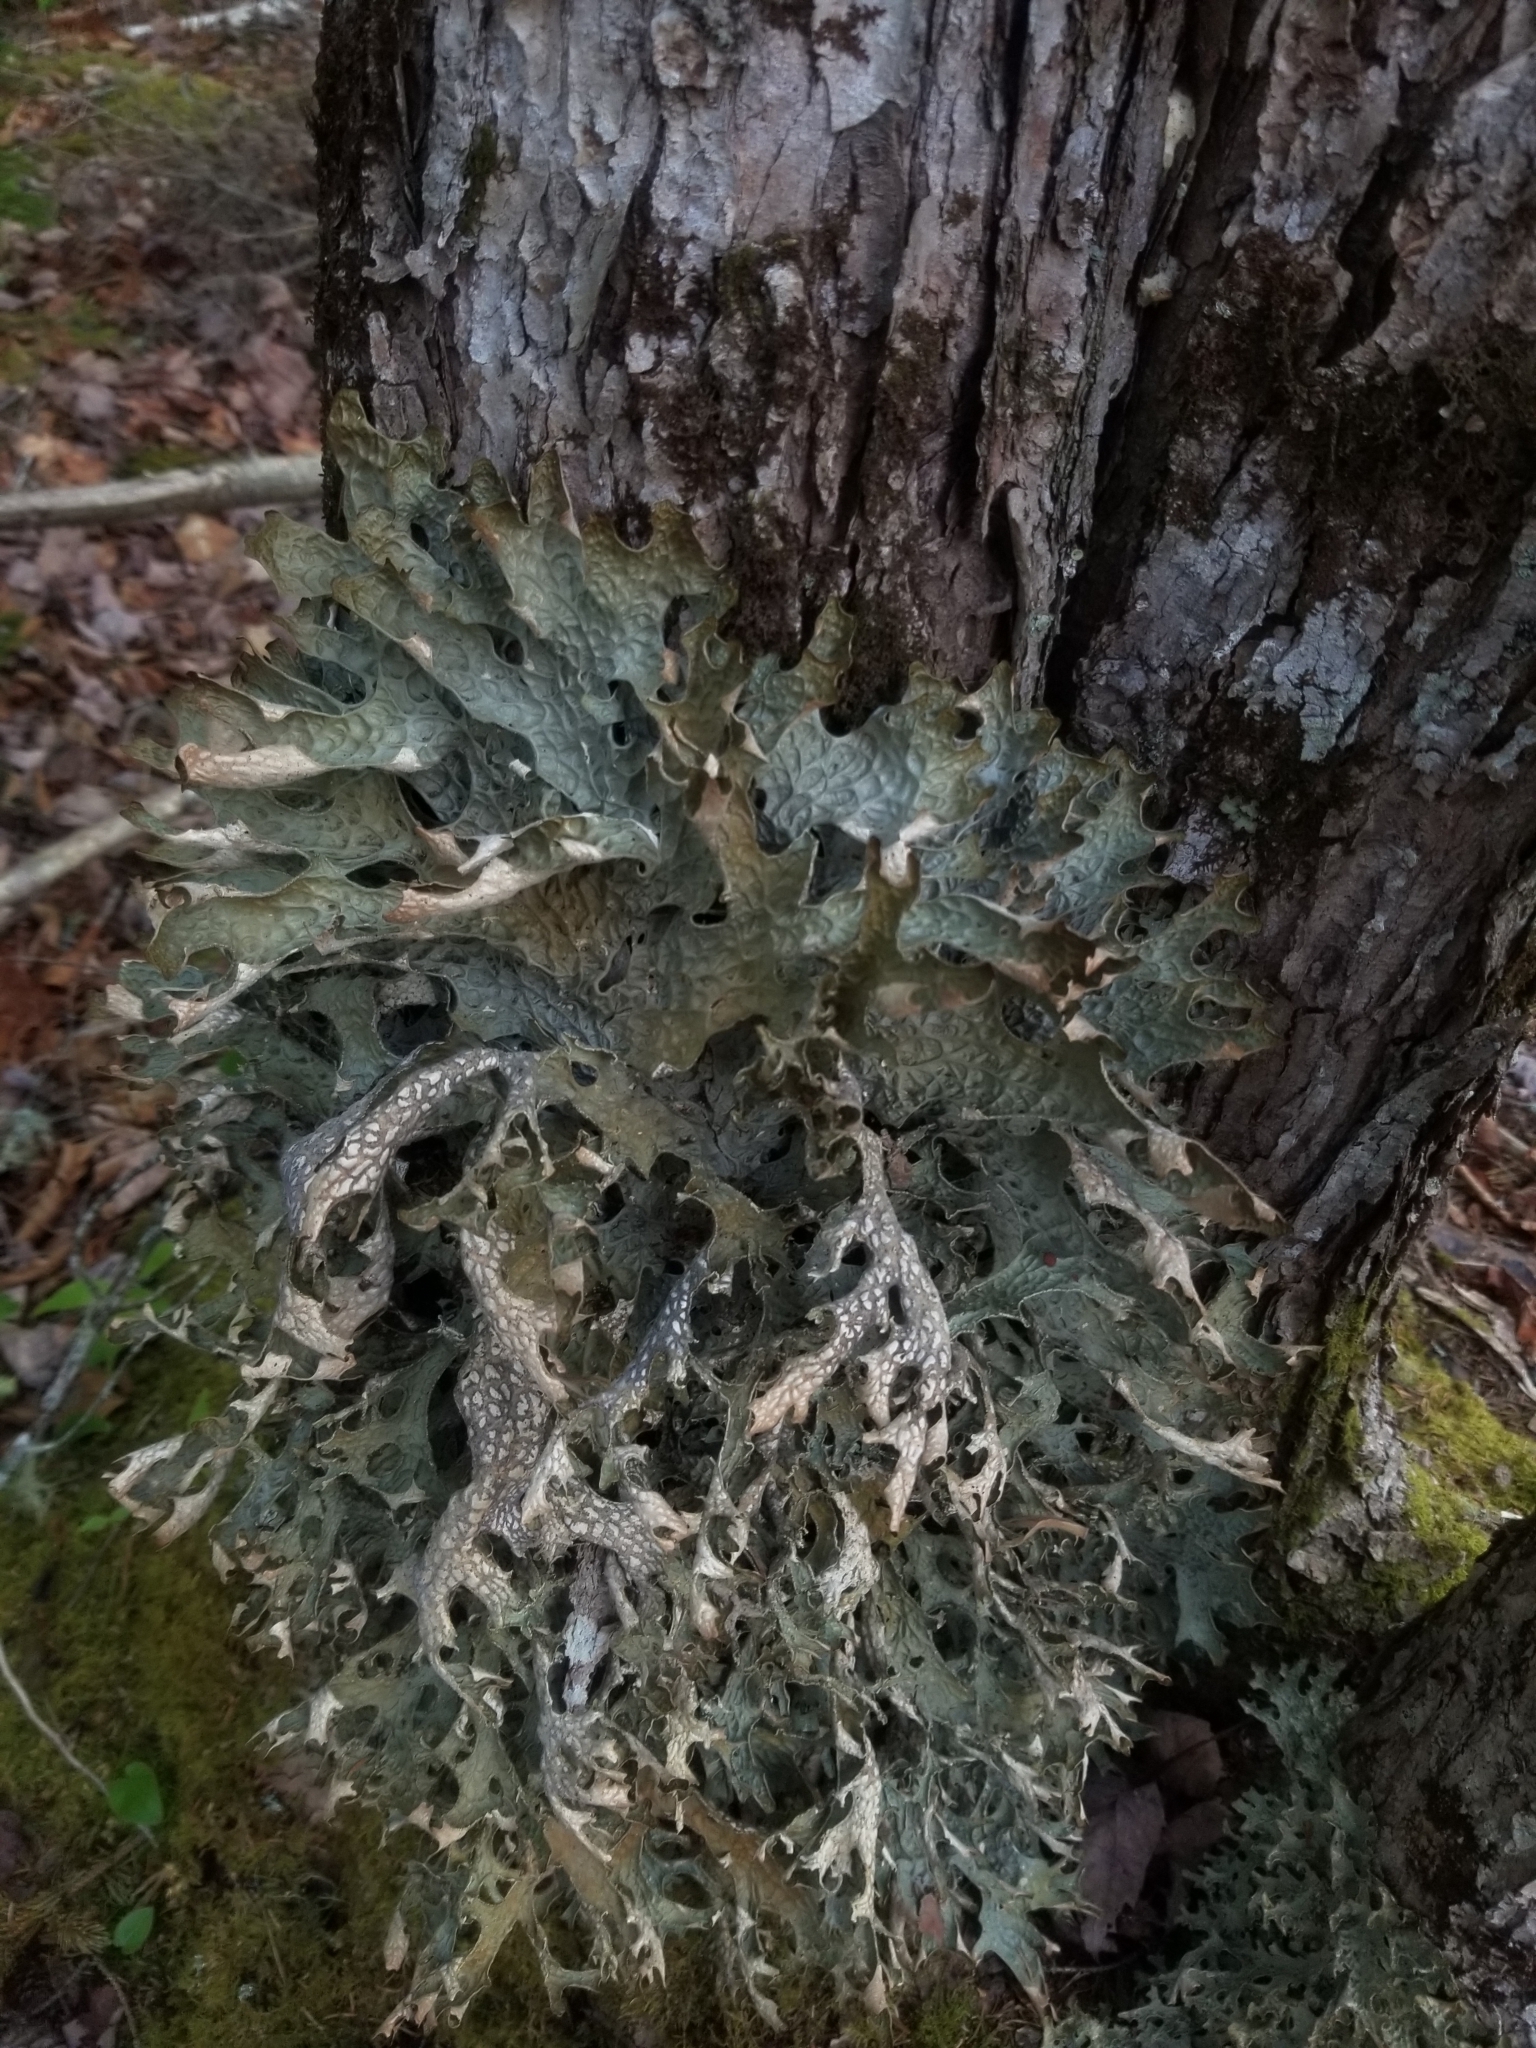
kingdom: Fungi
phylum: Ascomycota
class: Lecanoromycetes
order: Peltigerales
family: Lobariaceae
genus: Lobaria
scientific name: Lobaria pulmonaria
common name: Lungwort
